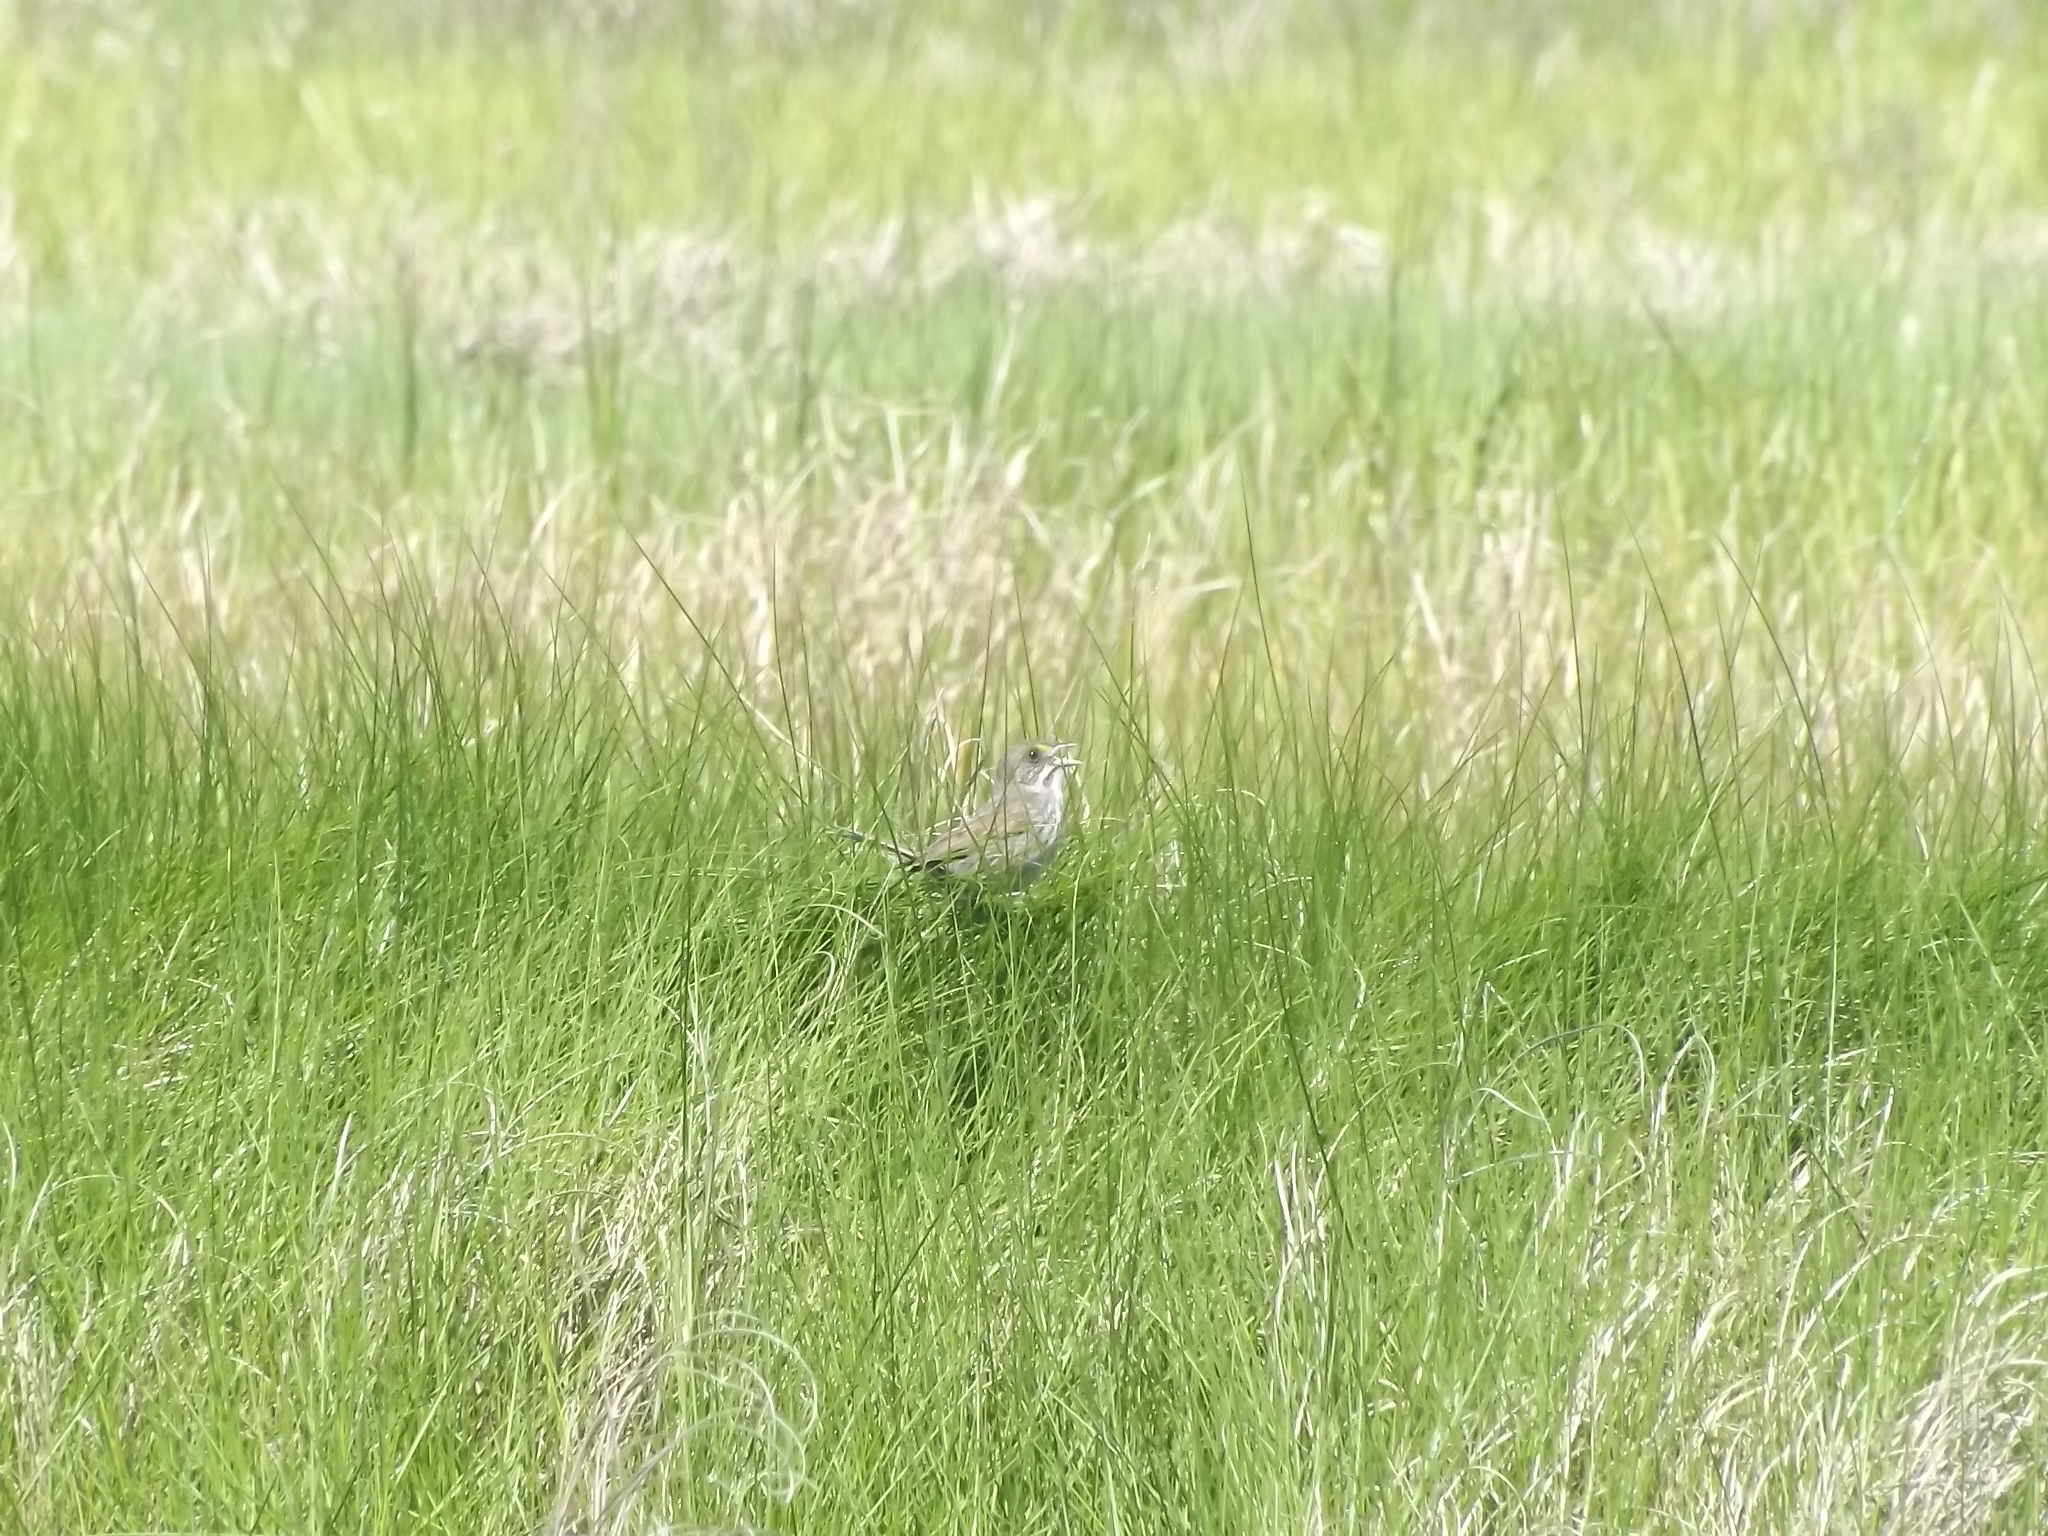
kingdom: Animalia
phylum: Chordata
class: Aves
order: Passeriformes
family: Passerellidae
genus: Ammospiza
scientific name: Ammospiza maritima
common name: Seaside sparrow
